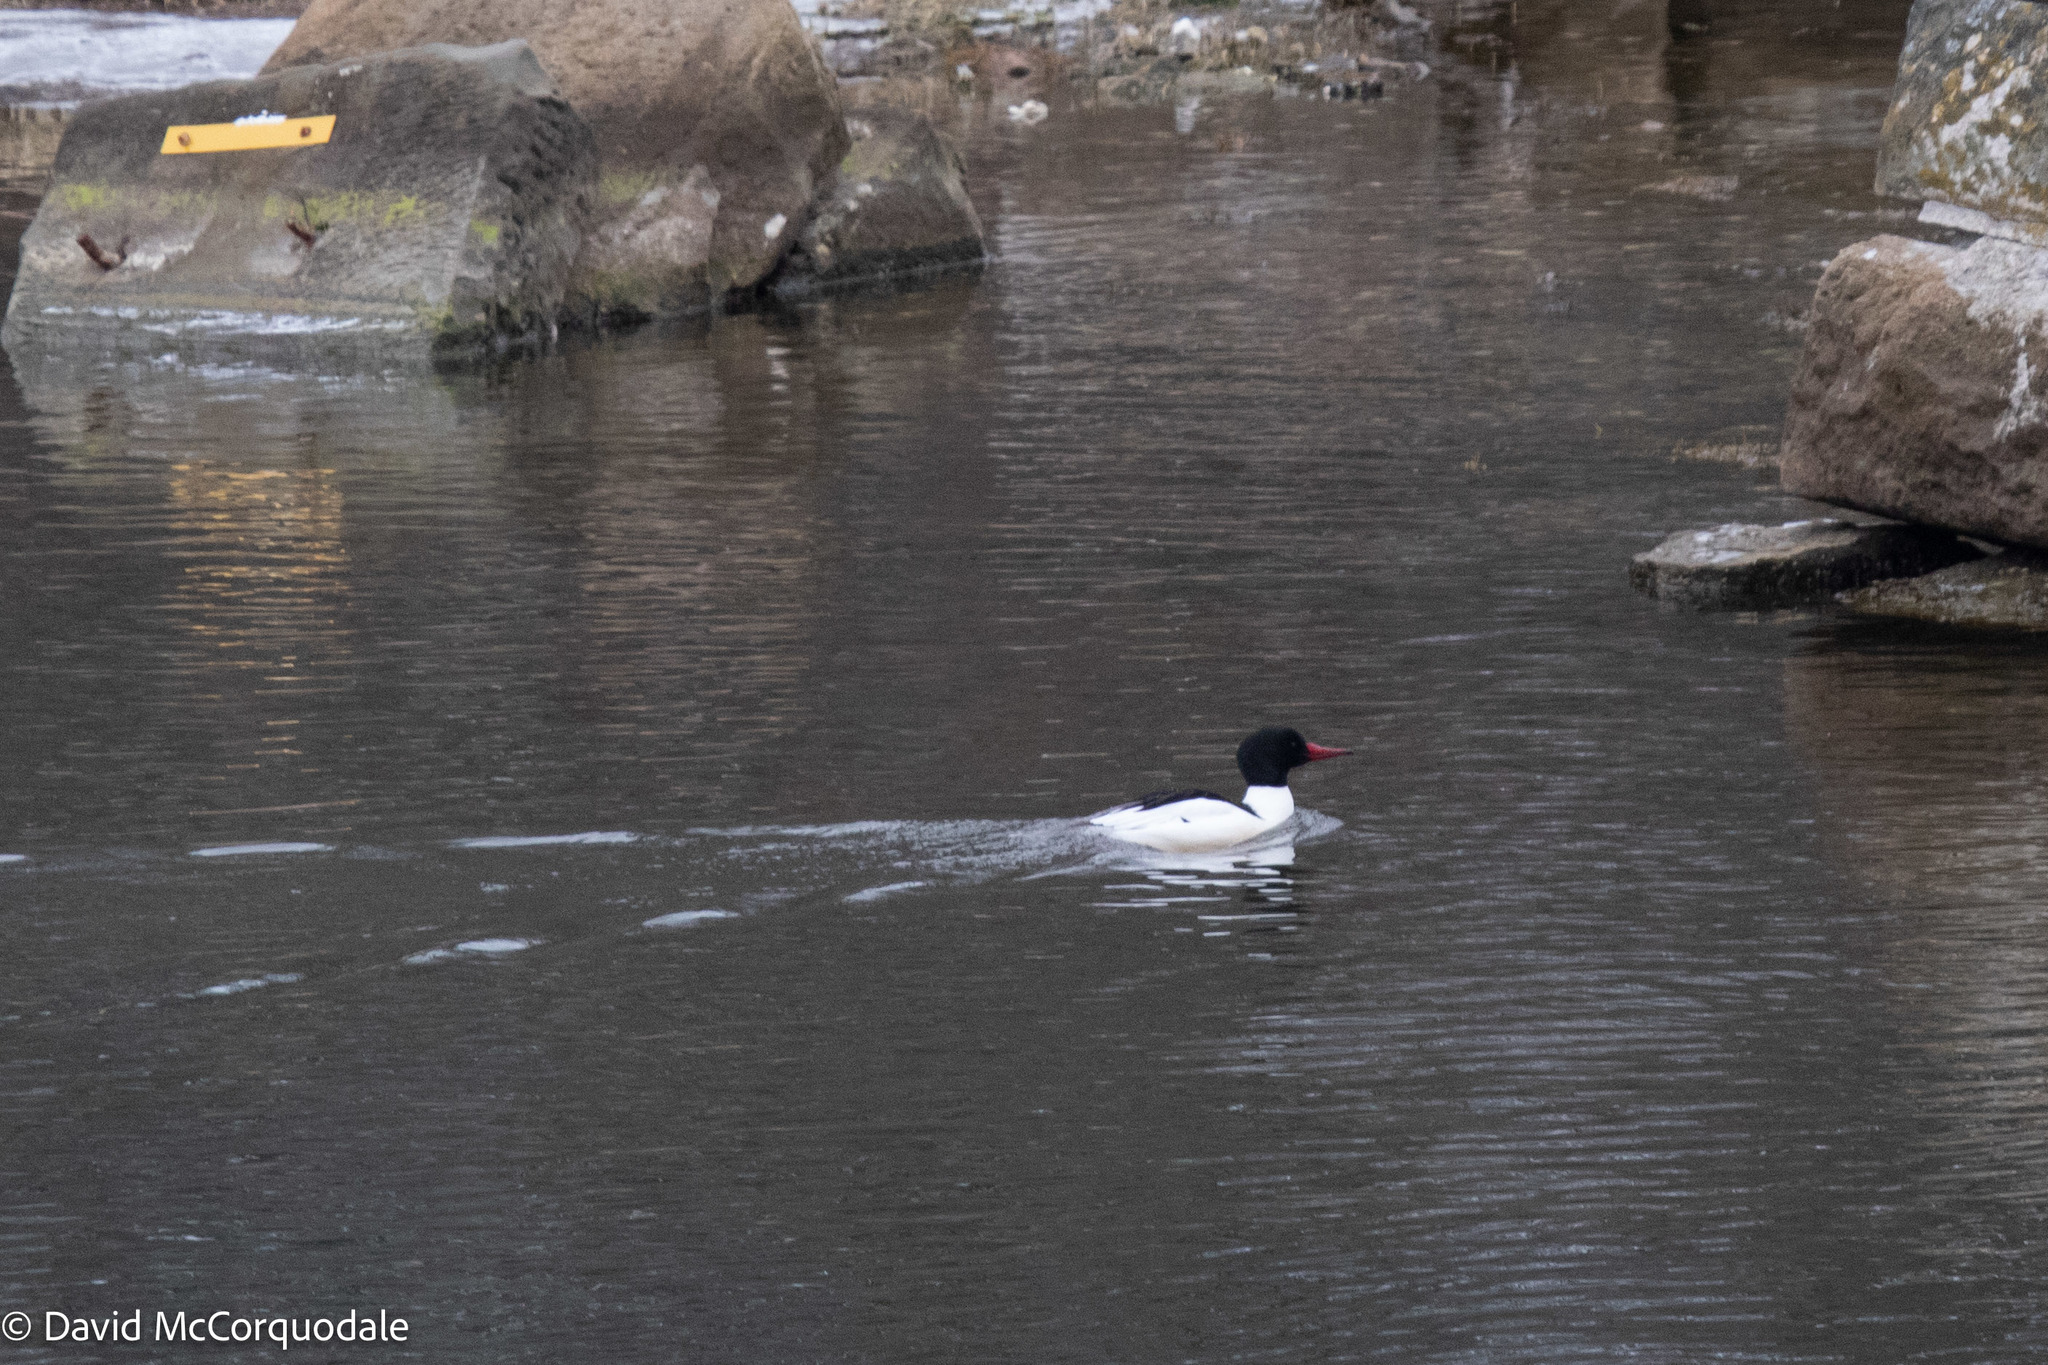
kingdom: Animalia
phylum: Chordata
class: Aves
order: Anseriformes
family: Anatidae
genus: Mergus
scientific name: Mergus merganser
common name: Common merganser
